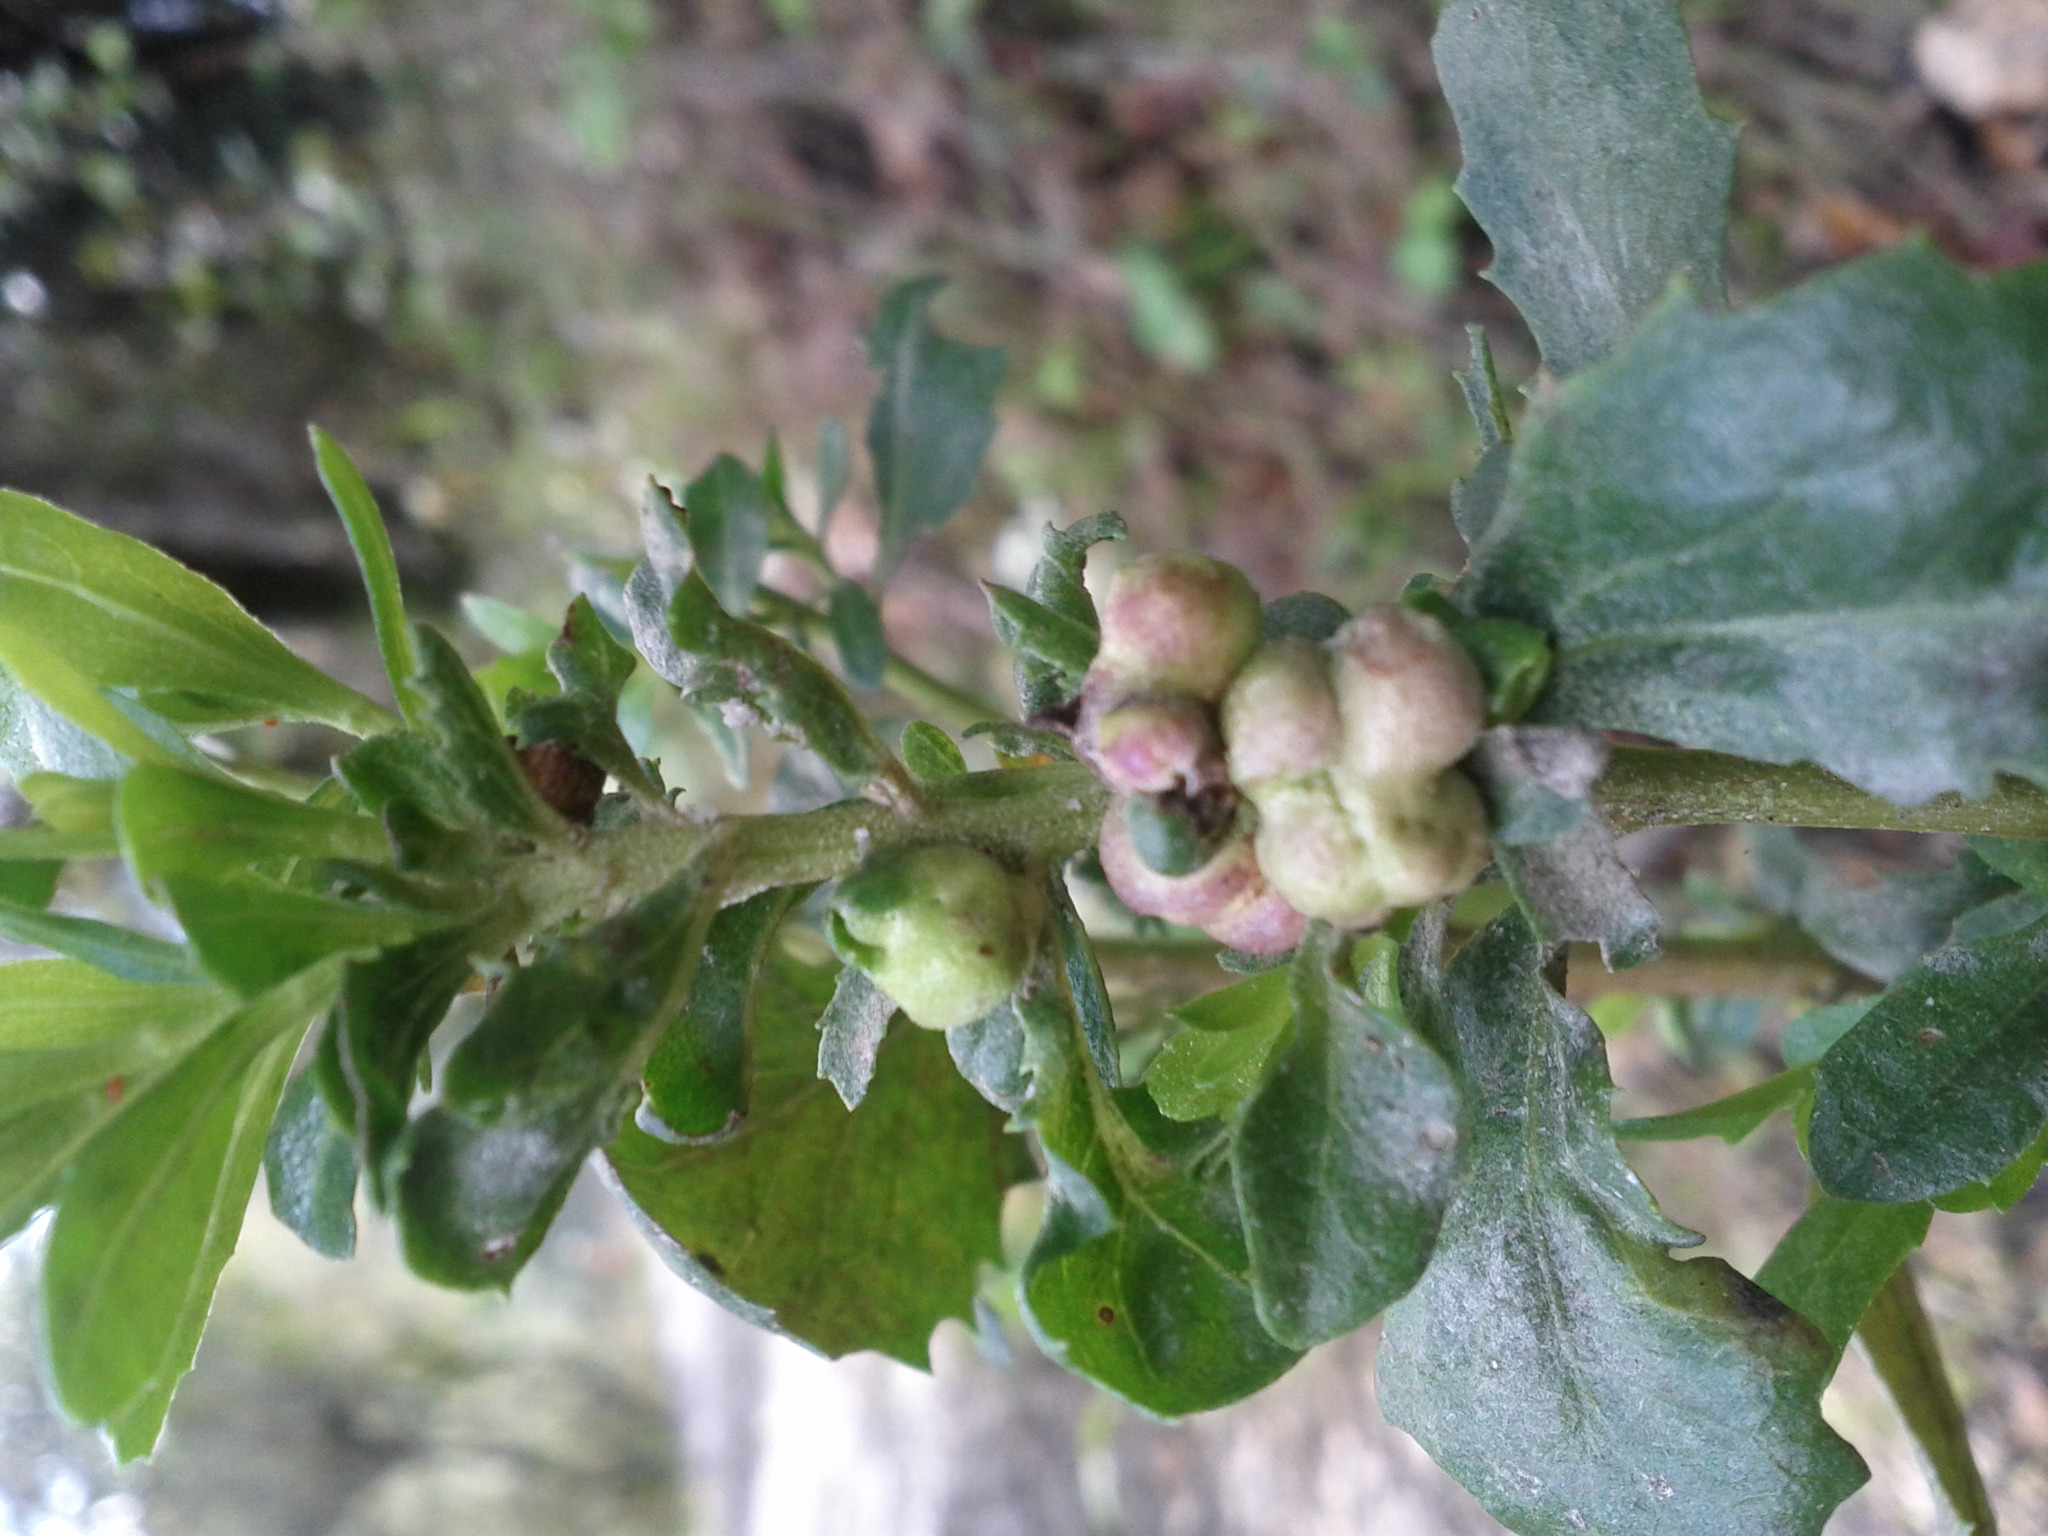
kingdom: Plantae
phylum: Tracheophyta
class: Magnoliopsida
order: Asterales
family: Asteraceae
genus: Baccharis
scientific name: Baccharis pilularis
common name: Coyotebrush
